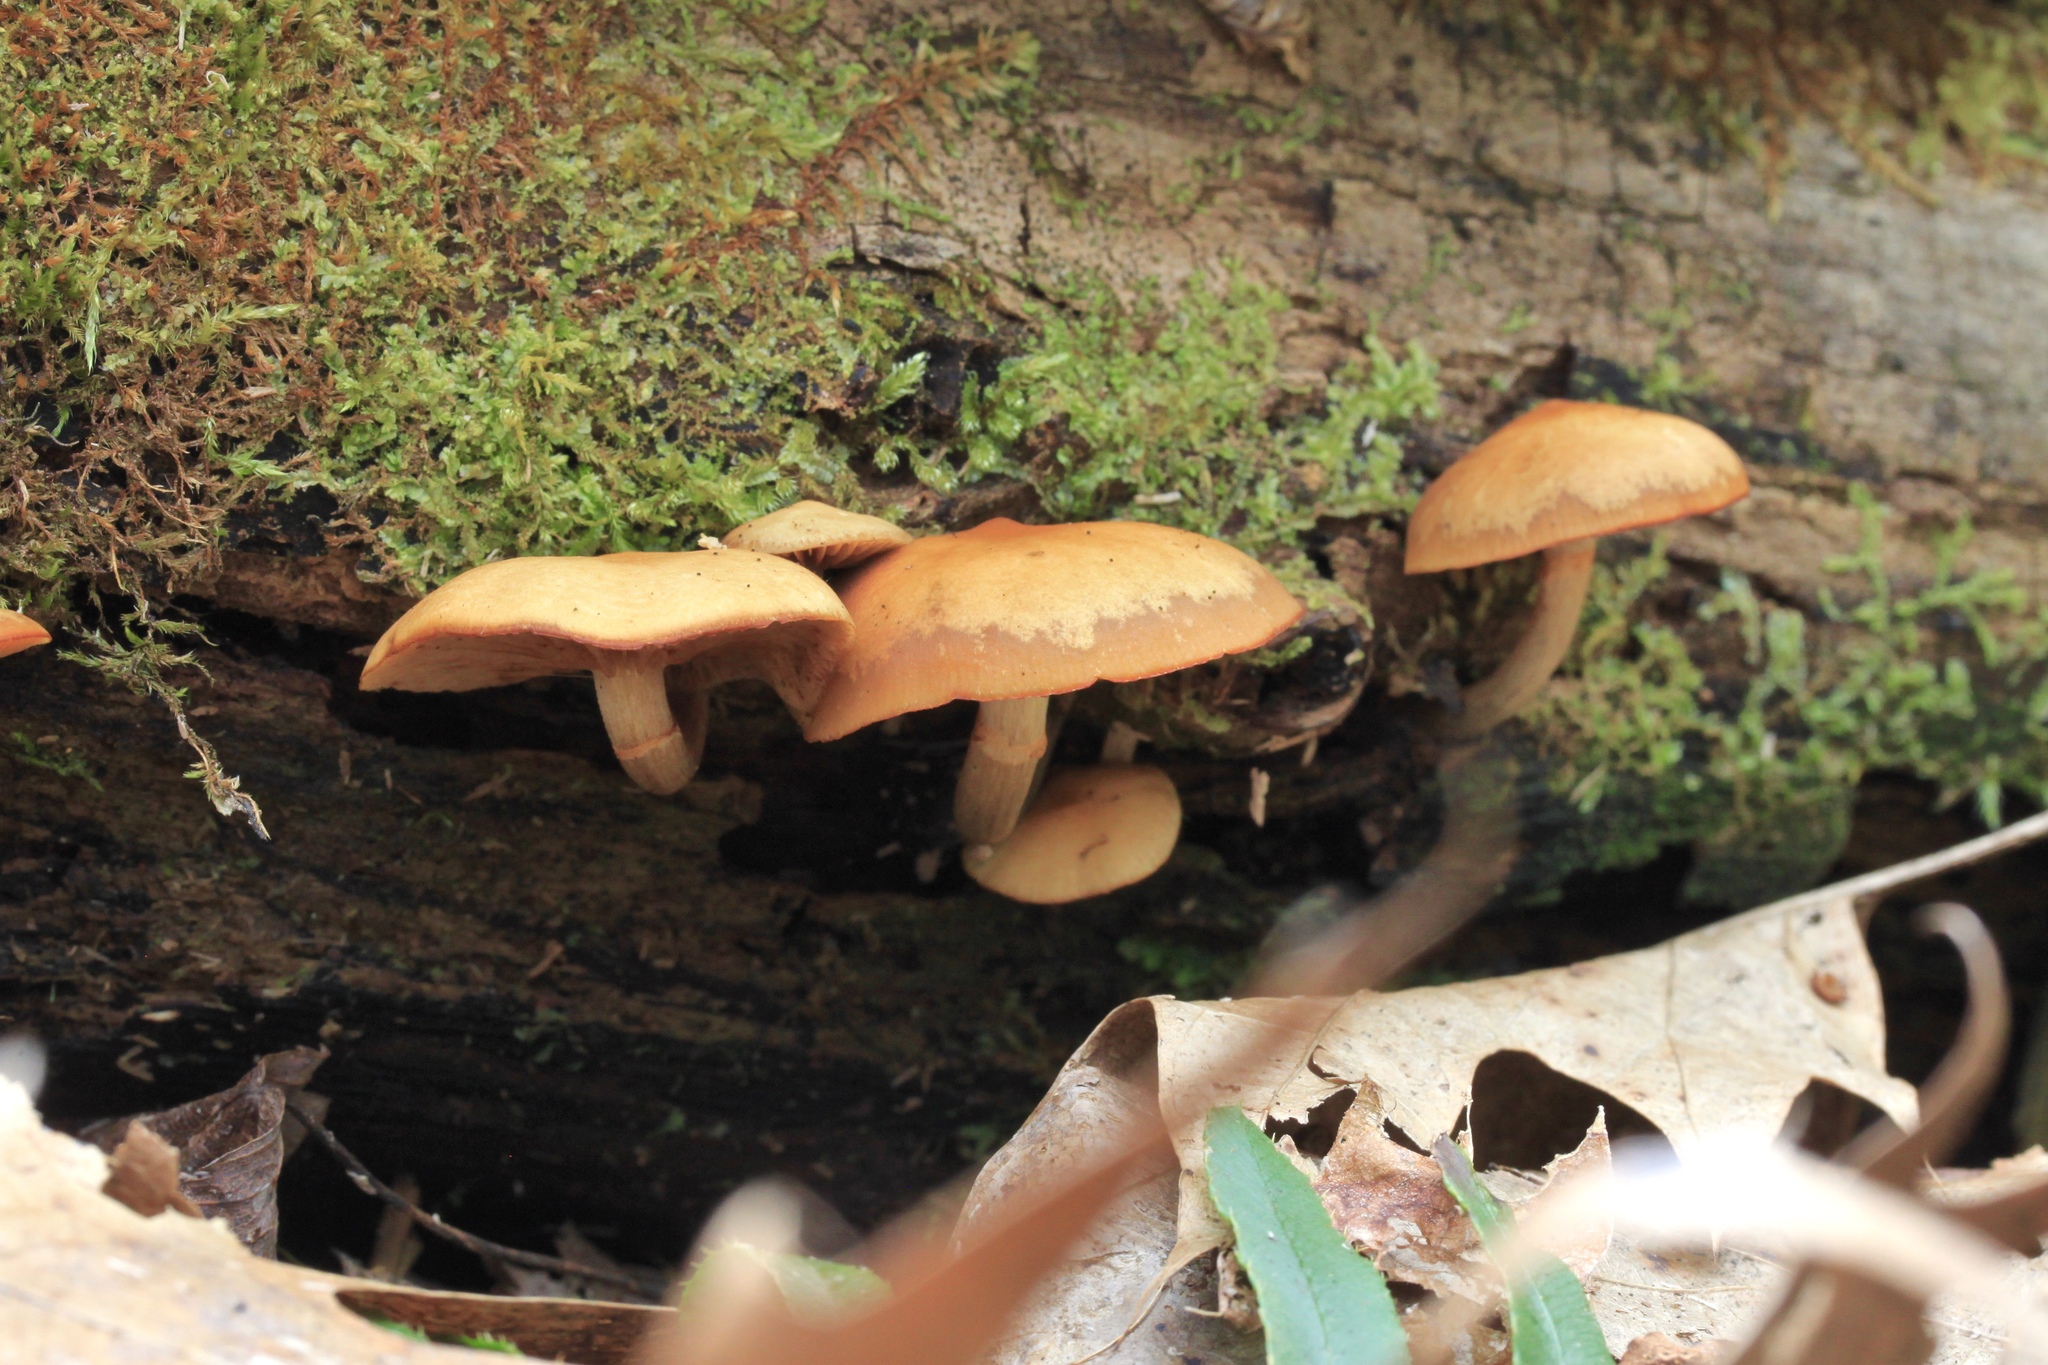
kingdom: Fungi
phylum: Basidiomycota
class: Agaricomycetes
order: Agaricales
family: Hymenogastraceae
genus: Galerina
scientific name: Galerina marginata
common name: Funeral bell
